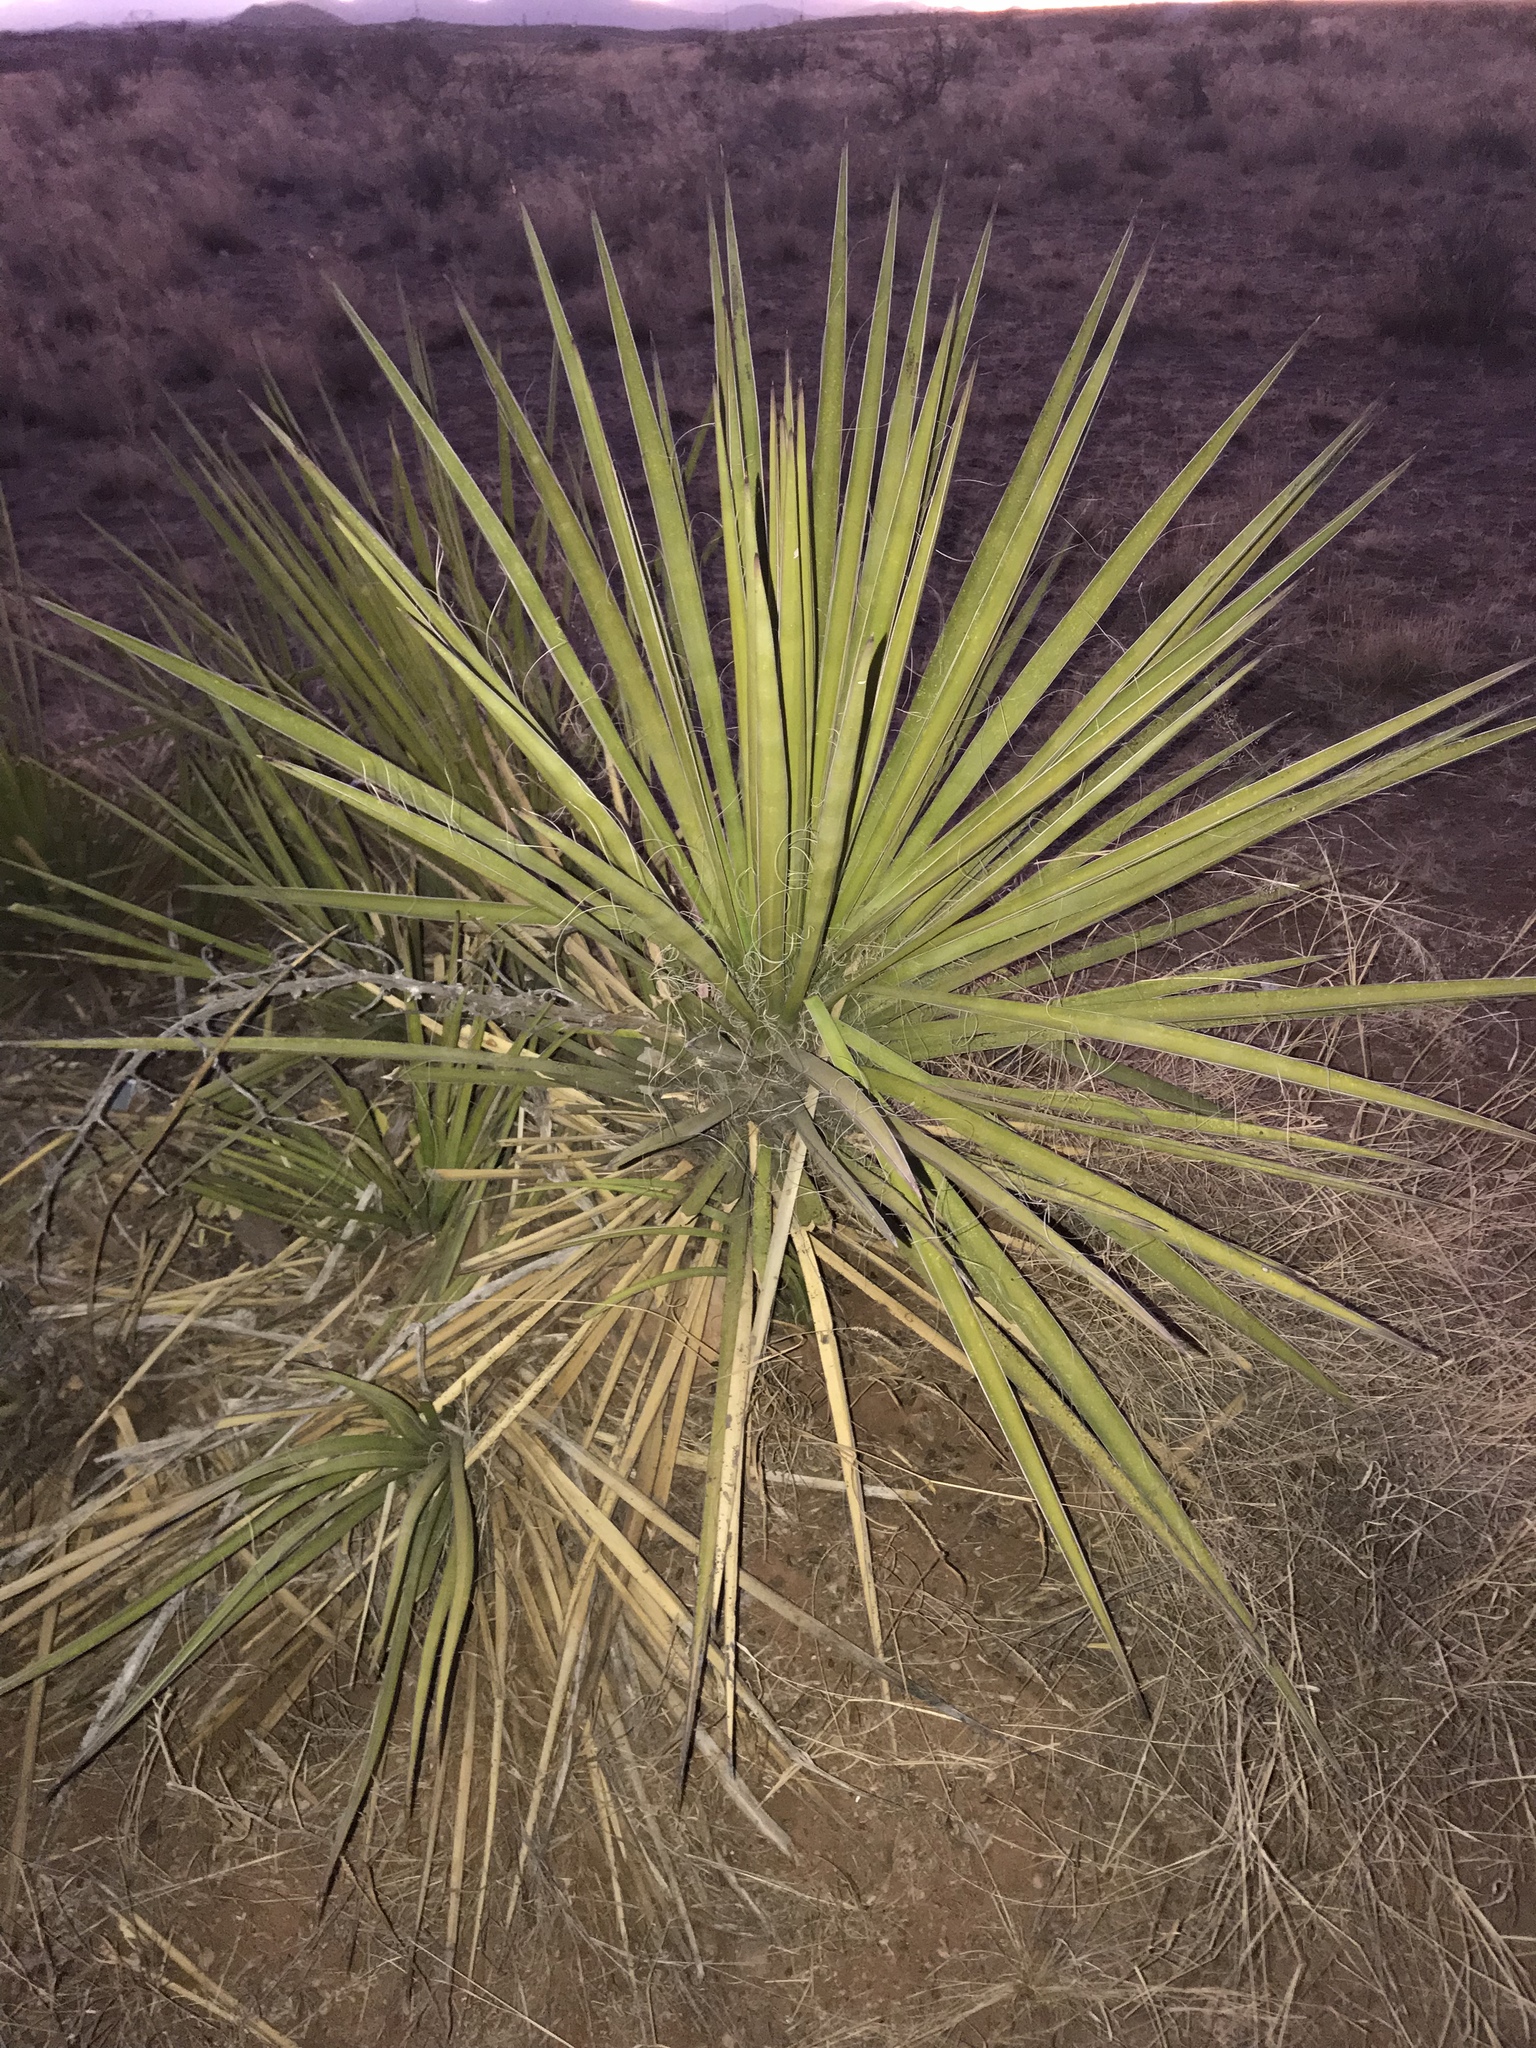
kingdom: Plantae
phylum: Tracheophyta
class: Liliopsida
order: Asparagales
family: Asparagaceae
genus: Yucca
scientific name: Yucca baccata
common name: Banana yucca
